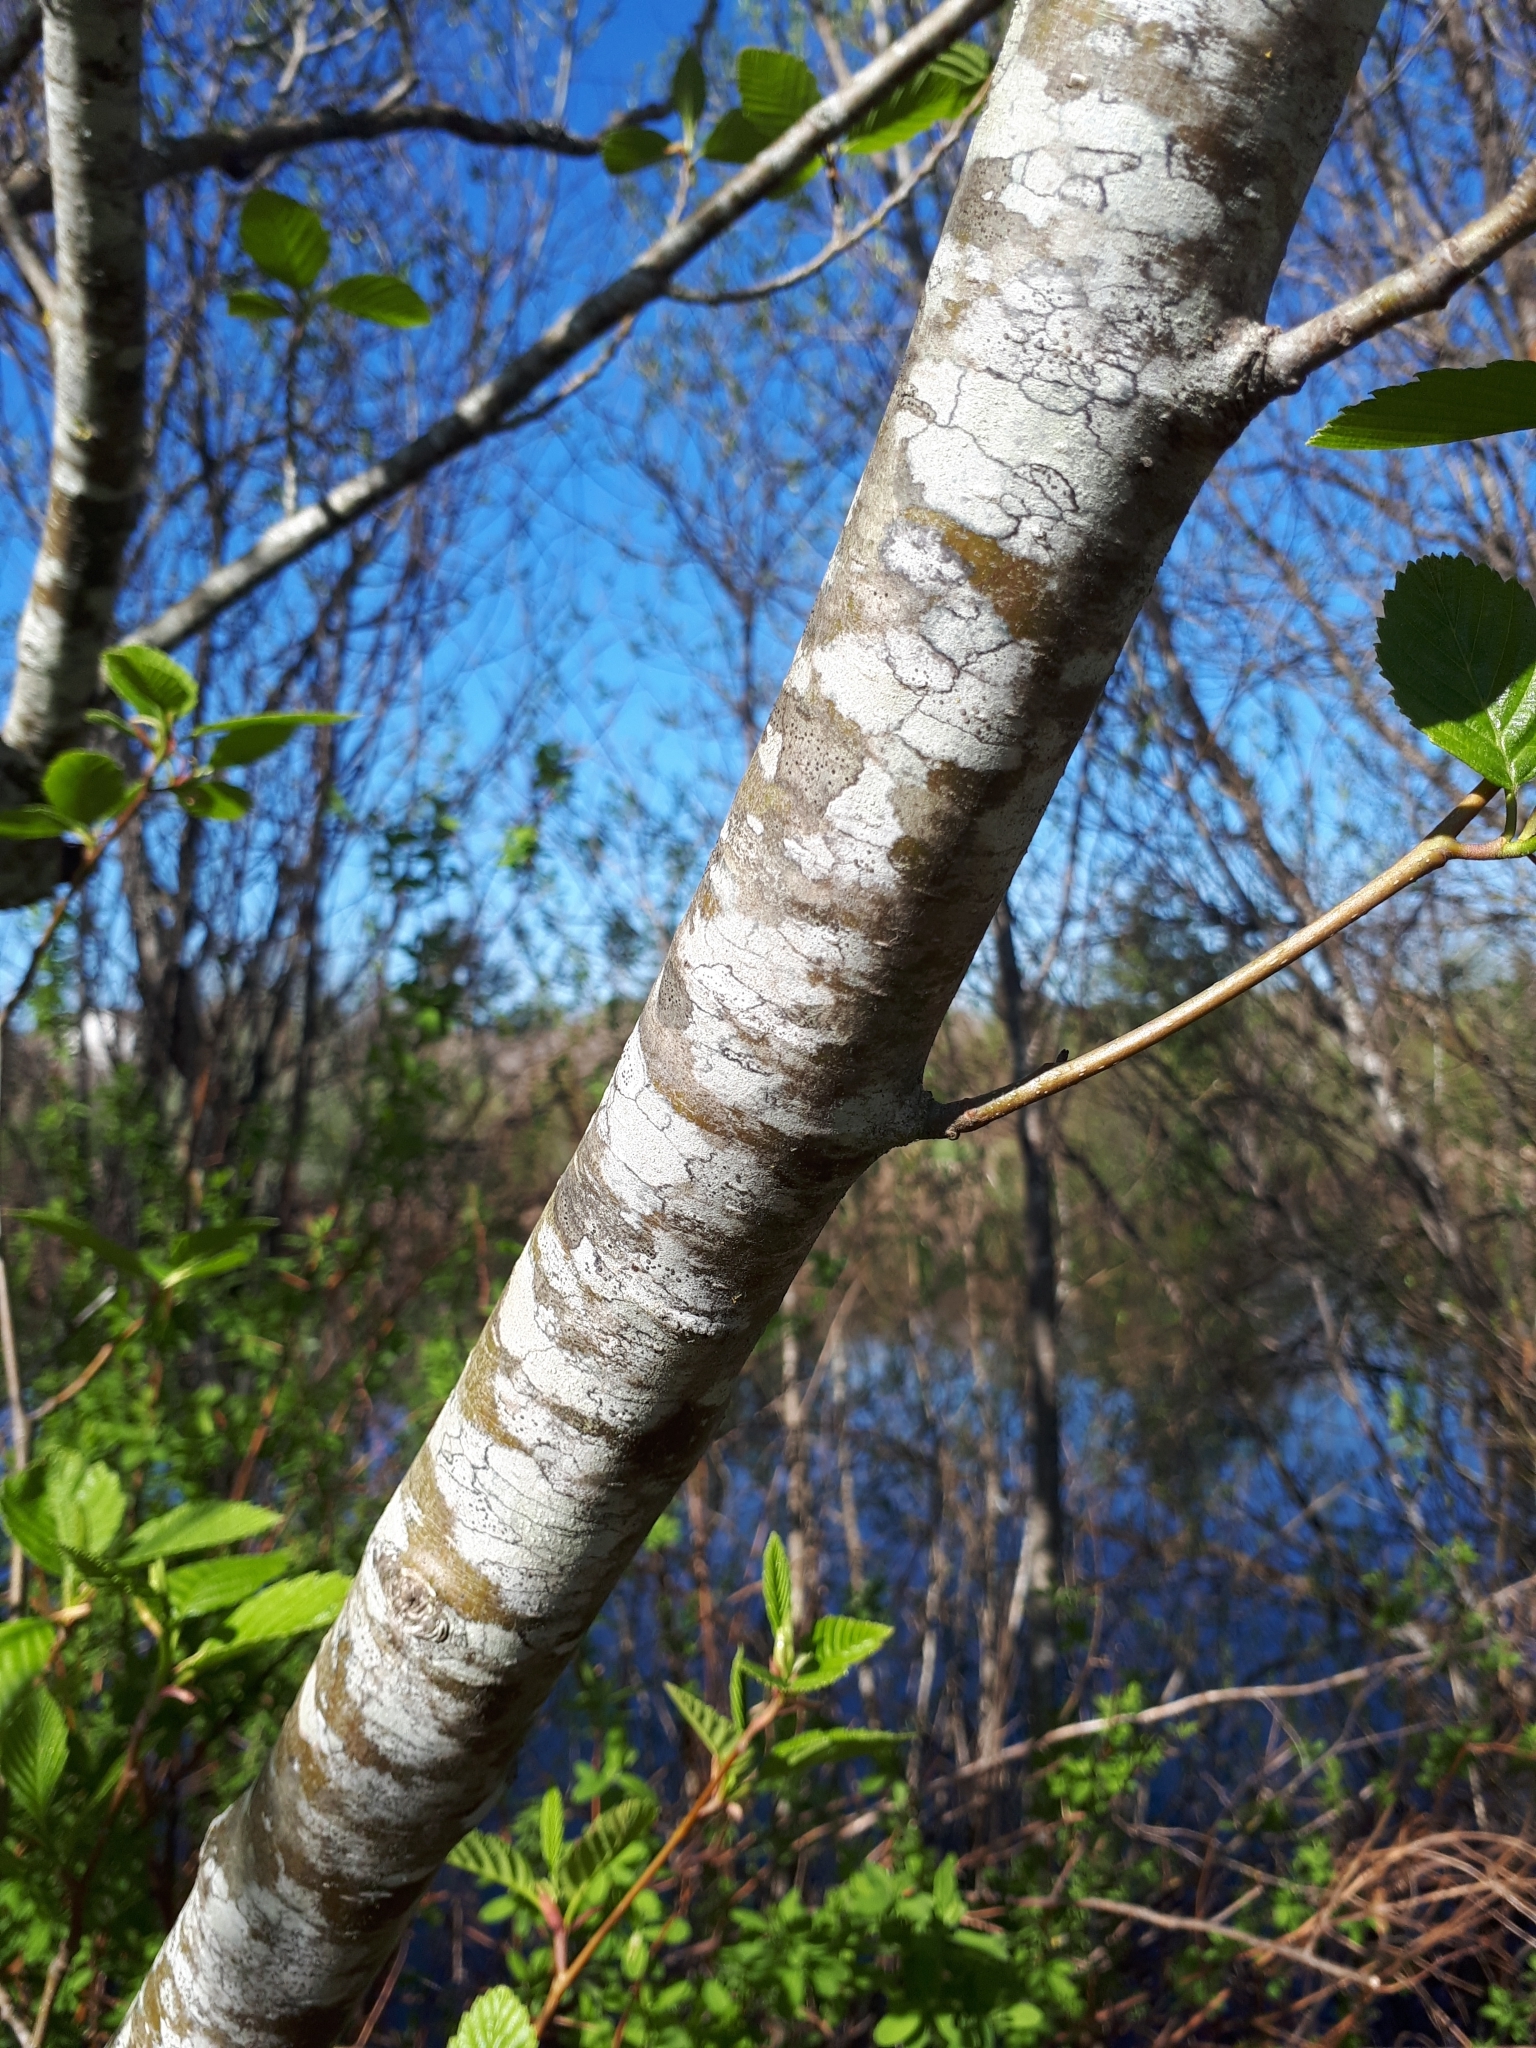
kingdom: Plantae
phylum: Tracheophyta
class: Magnoliopsida
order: Fagales
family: Betulaceae
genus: Alnus
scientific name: Alnus rubra
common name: Red alder
